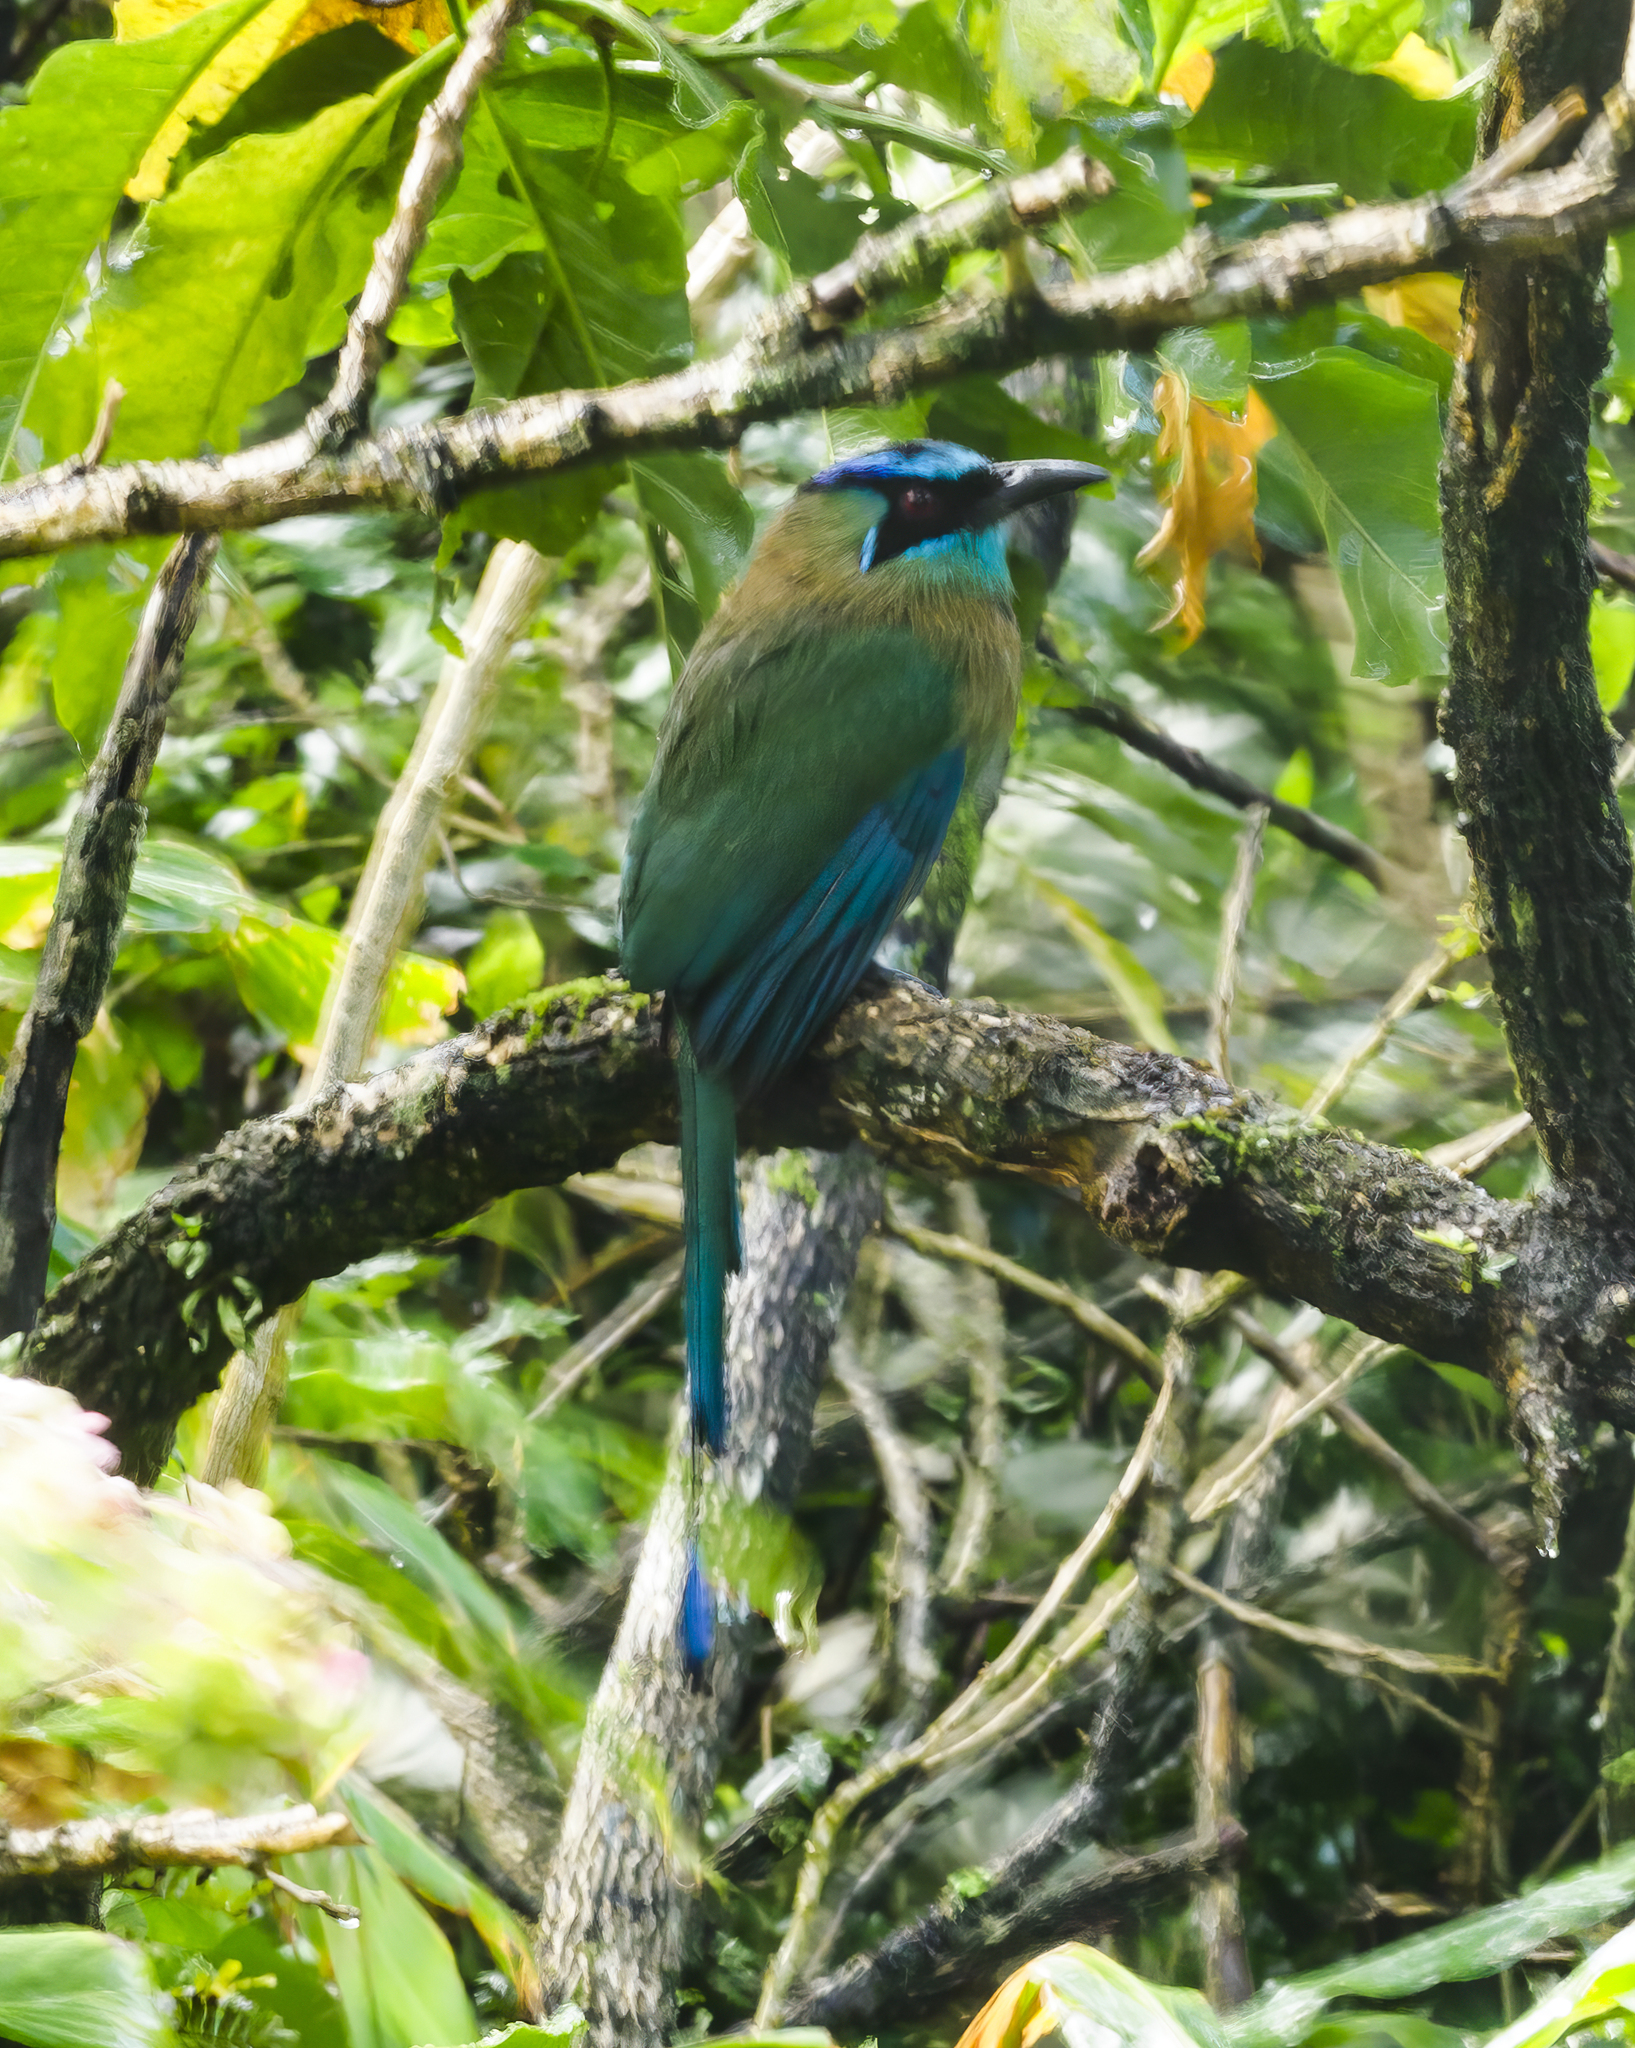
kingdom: Animalia
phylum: Chordata
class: Aves
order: Coraciiformes
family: Momotidae
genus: Momotus
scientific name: Momotus lessonii
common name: Lesson's motmot
